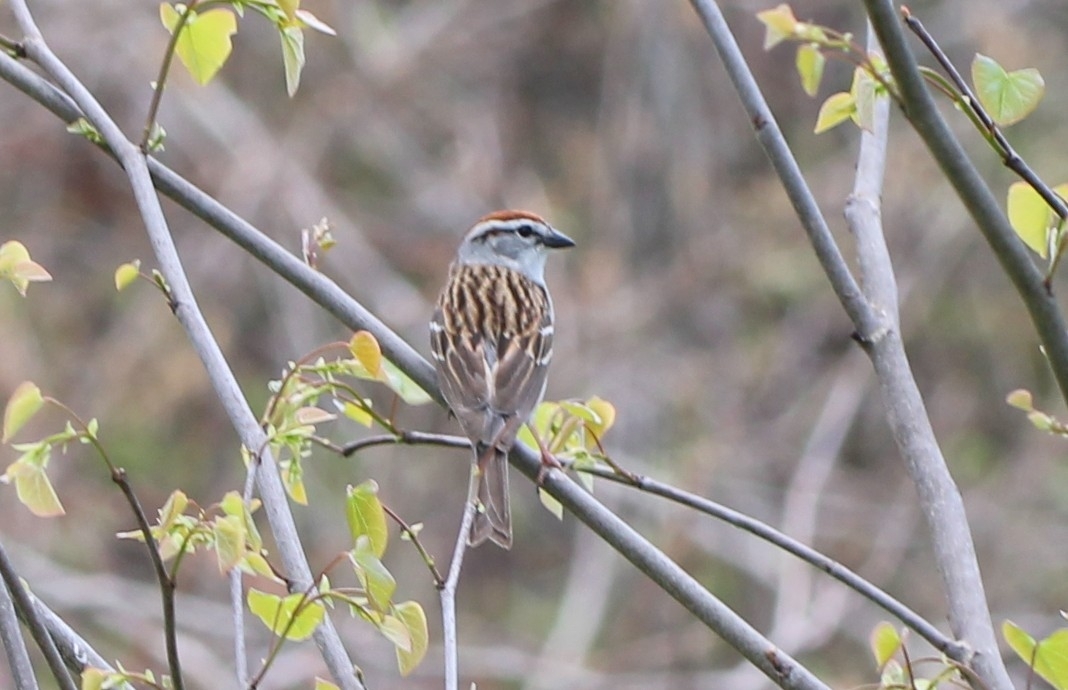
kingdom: Animalia
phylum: Chordata
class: Aves
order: Passeriformes
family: Passerellidae
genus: Spizella
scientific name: Spizella passerina
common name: Chipping sparrow
